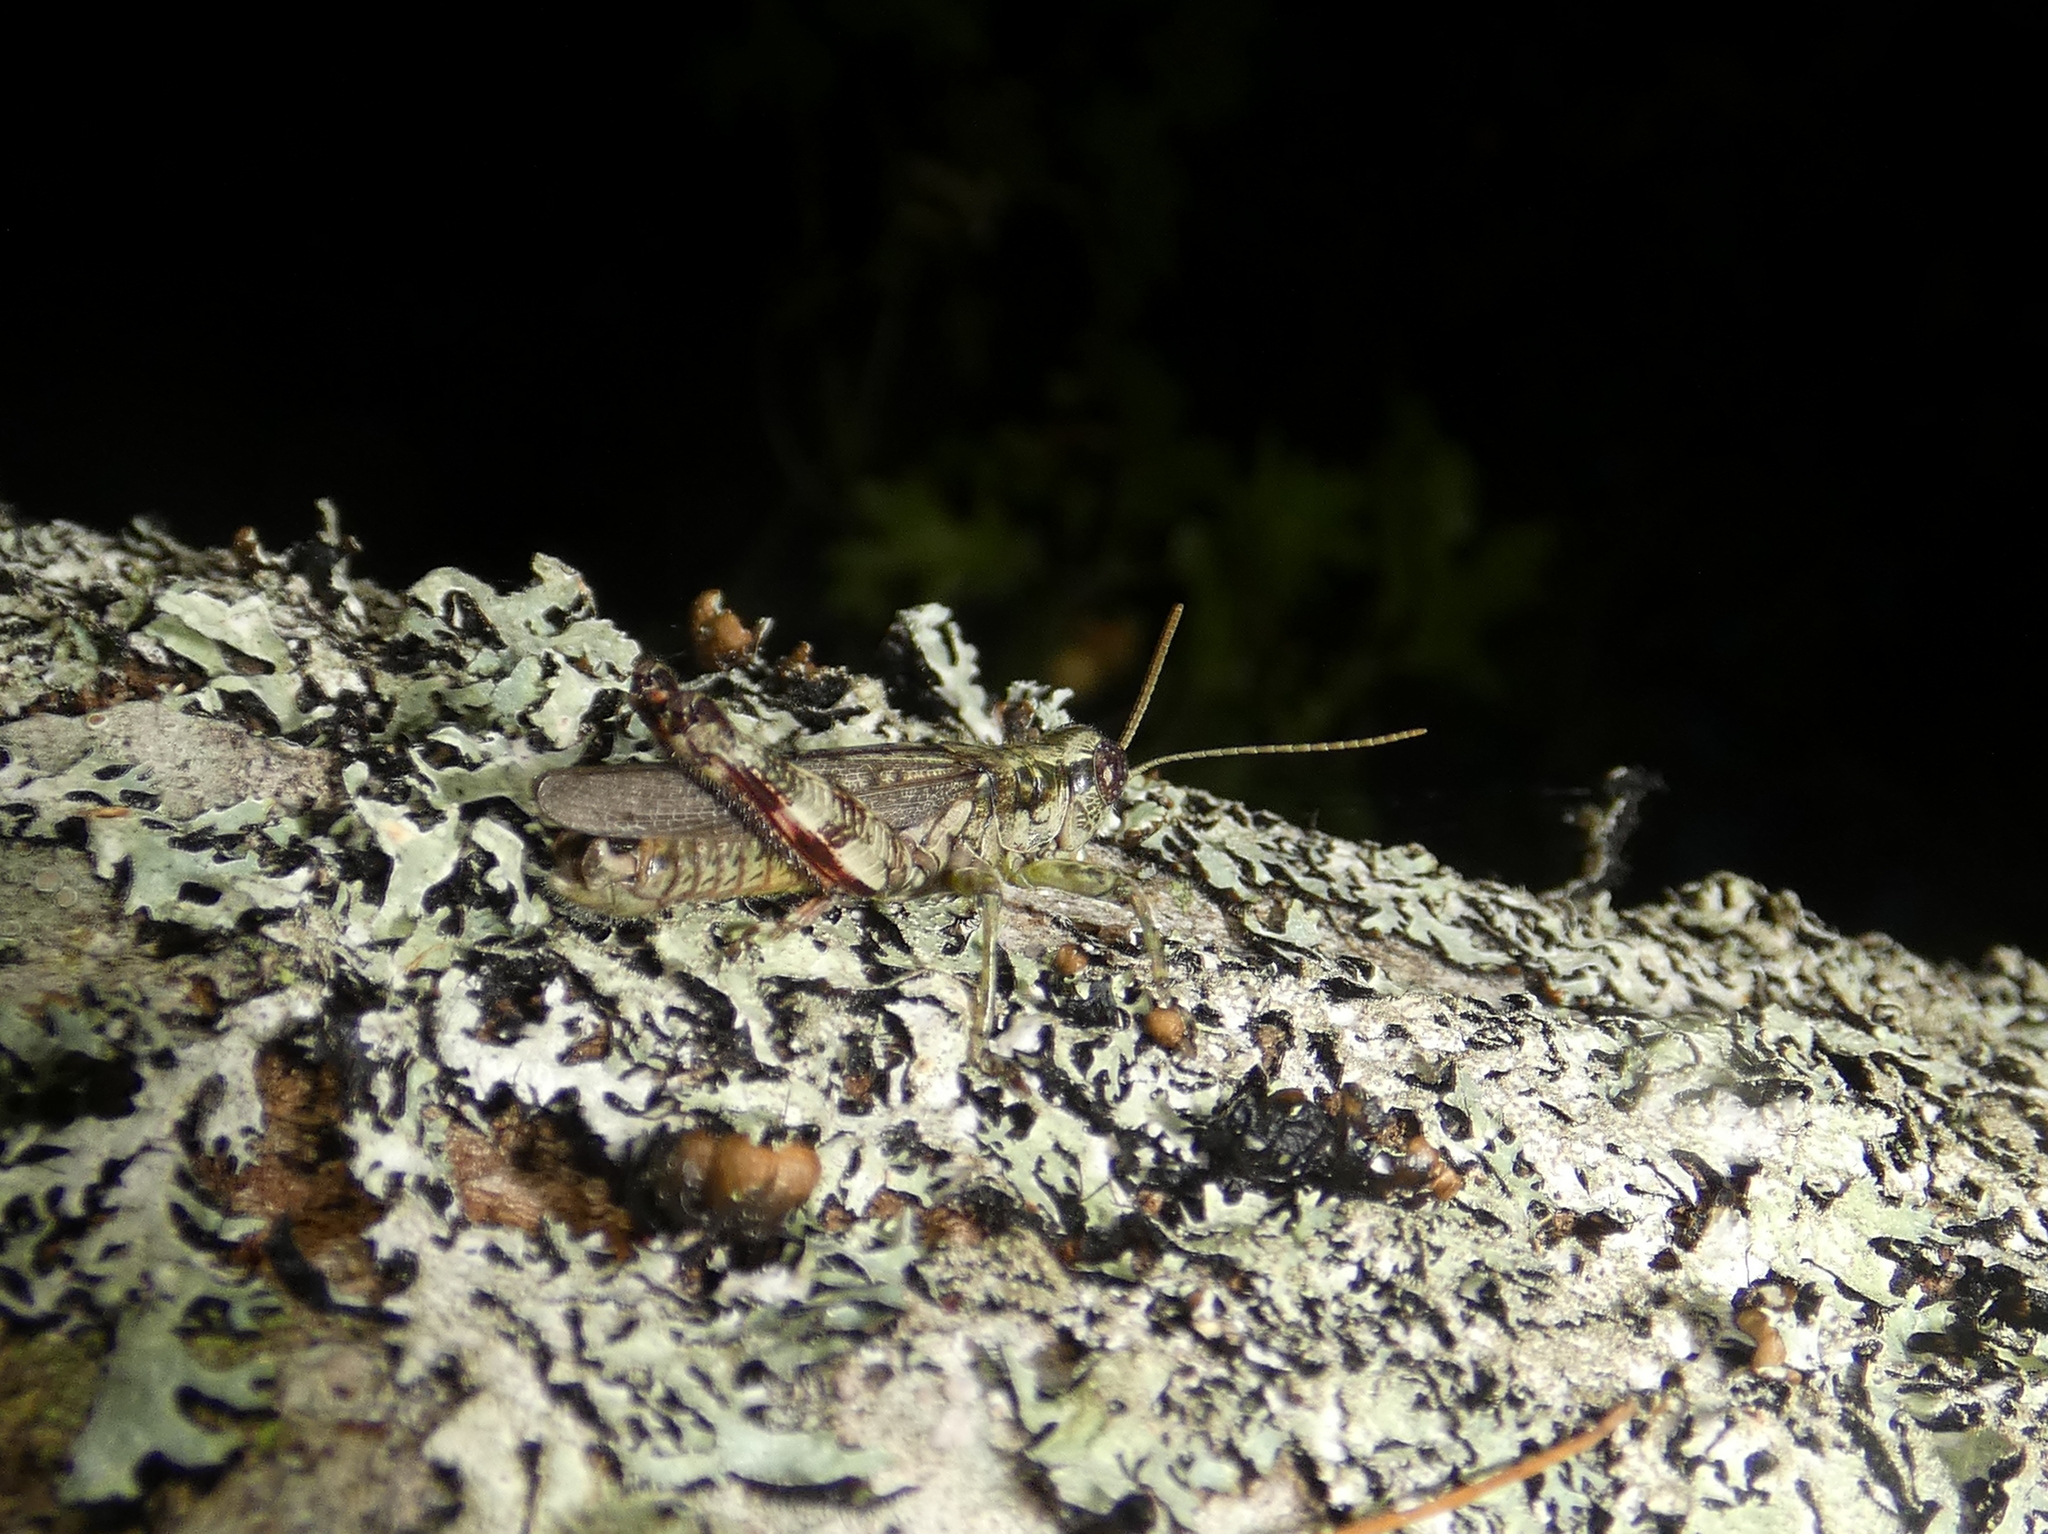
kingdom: Animalia
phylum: Arthropoda
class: Insecta
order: Orthoptera
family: Acrididae
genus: Melanoplus
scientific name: Melanoplus punctulatus
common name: Pine-tree spur-throat grasshopper
